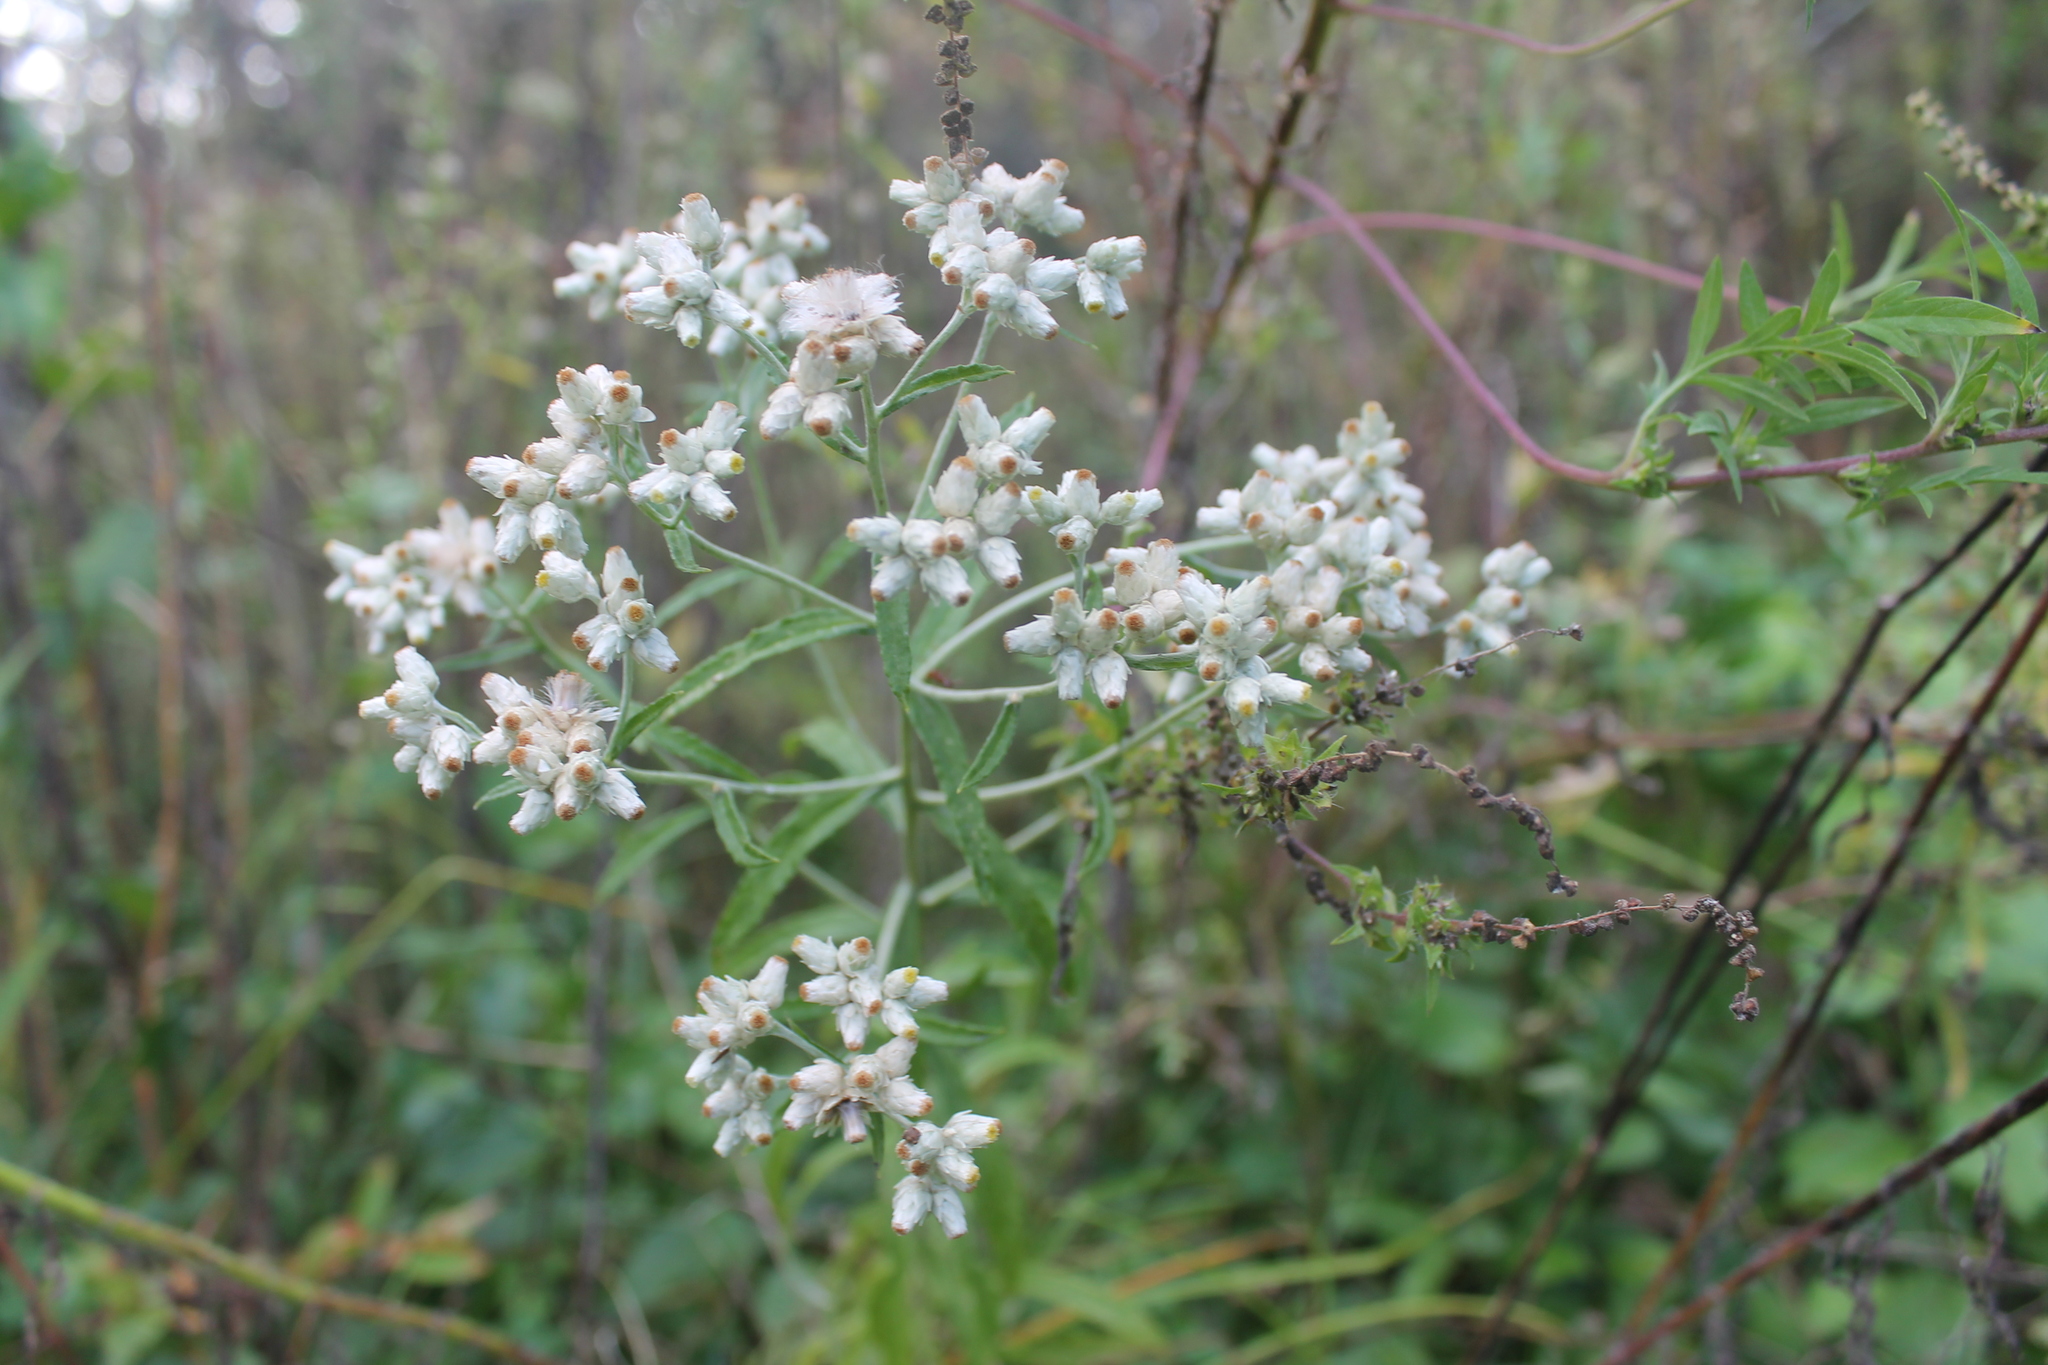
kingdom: Plantae
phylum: Tracheophyta
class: Magnoliopsida
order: Asterales
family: Asteraceae
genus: Pseudognaphalium
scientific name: Pseudognaphalium obtusifolium
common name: Eastern rabbit-tobacco
